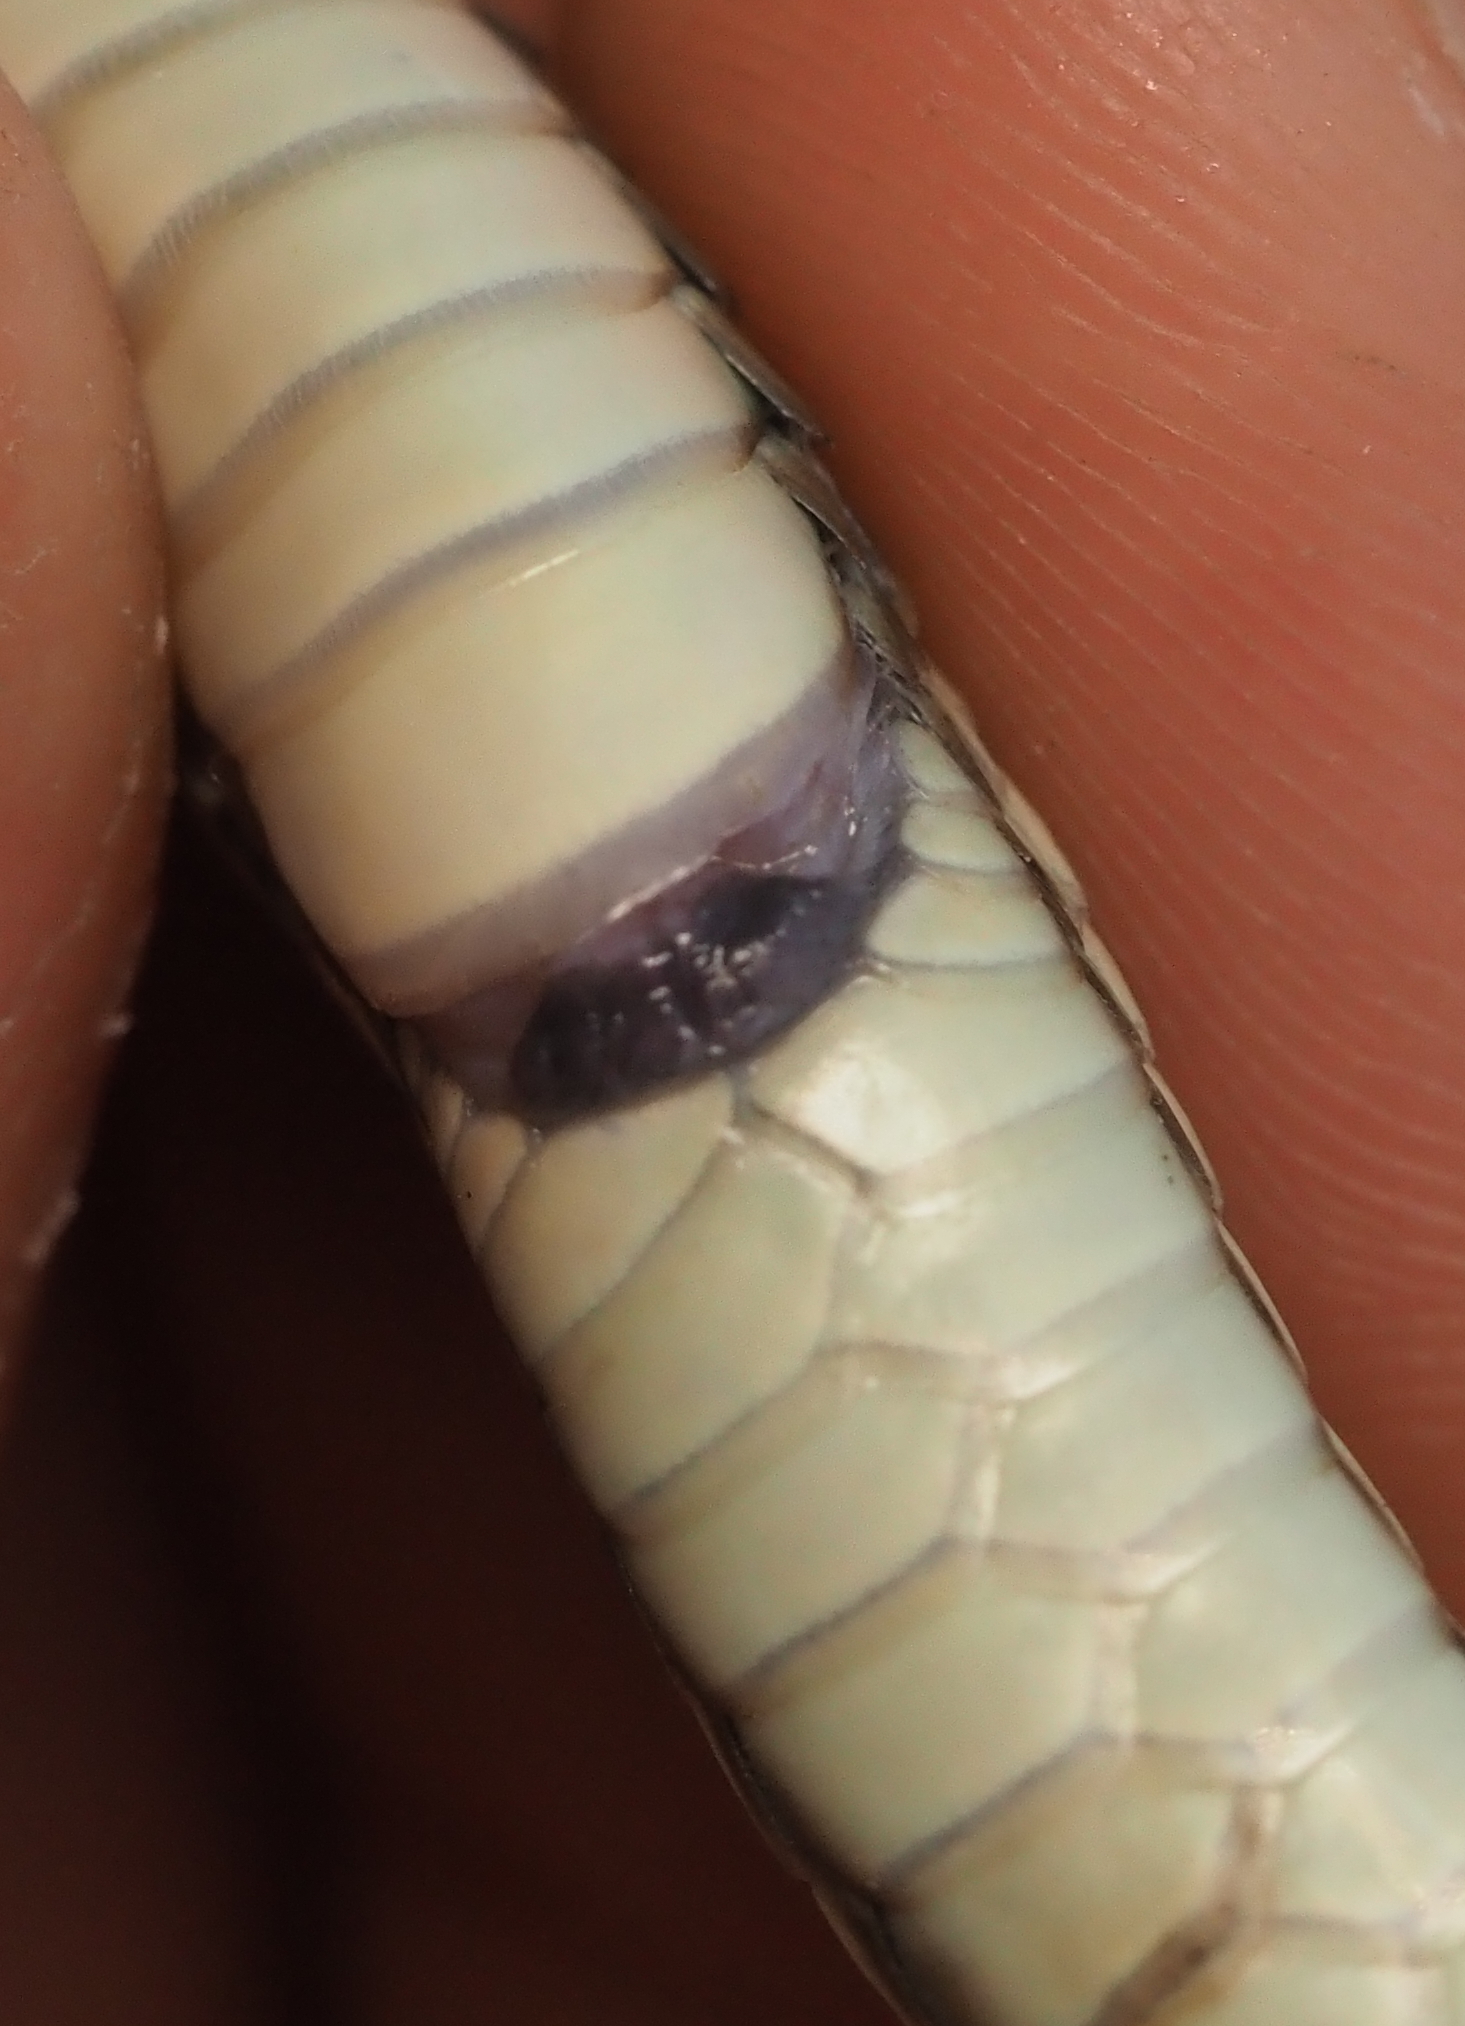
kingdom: Animalia
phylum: Chordata
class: Squamata
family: Colubridae
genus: Thamnophis
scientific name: Thamnophis proximus
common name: Western ribbon snake
